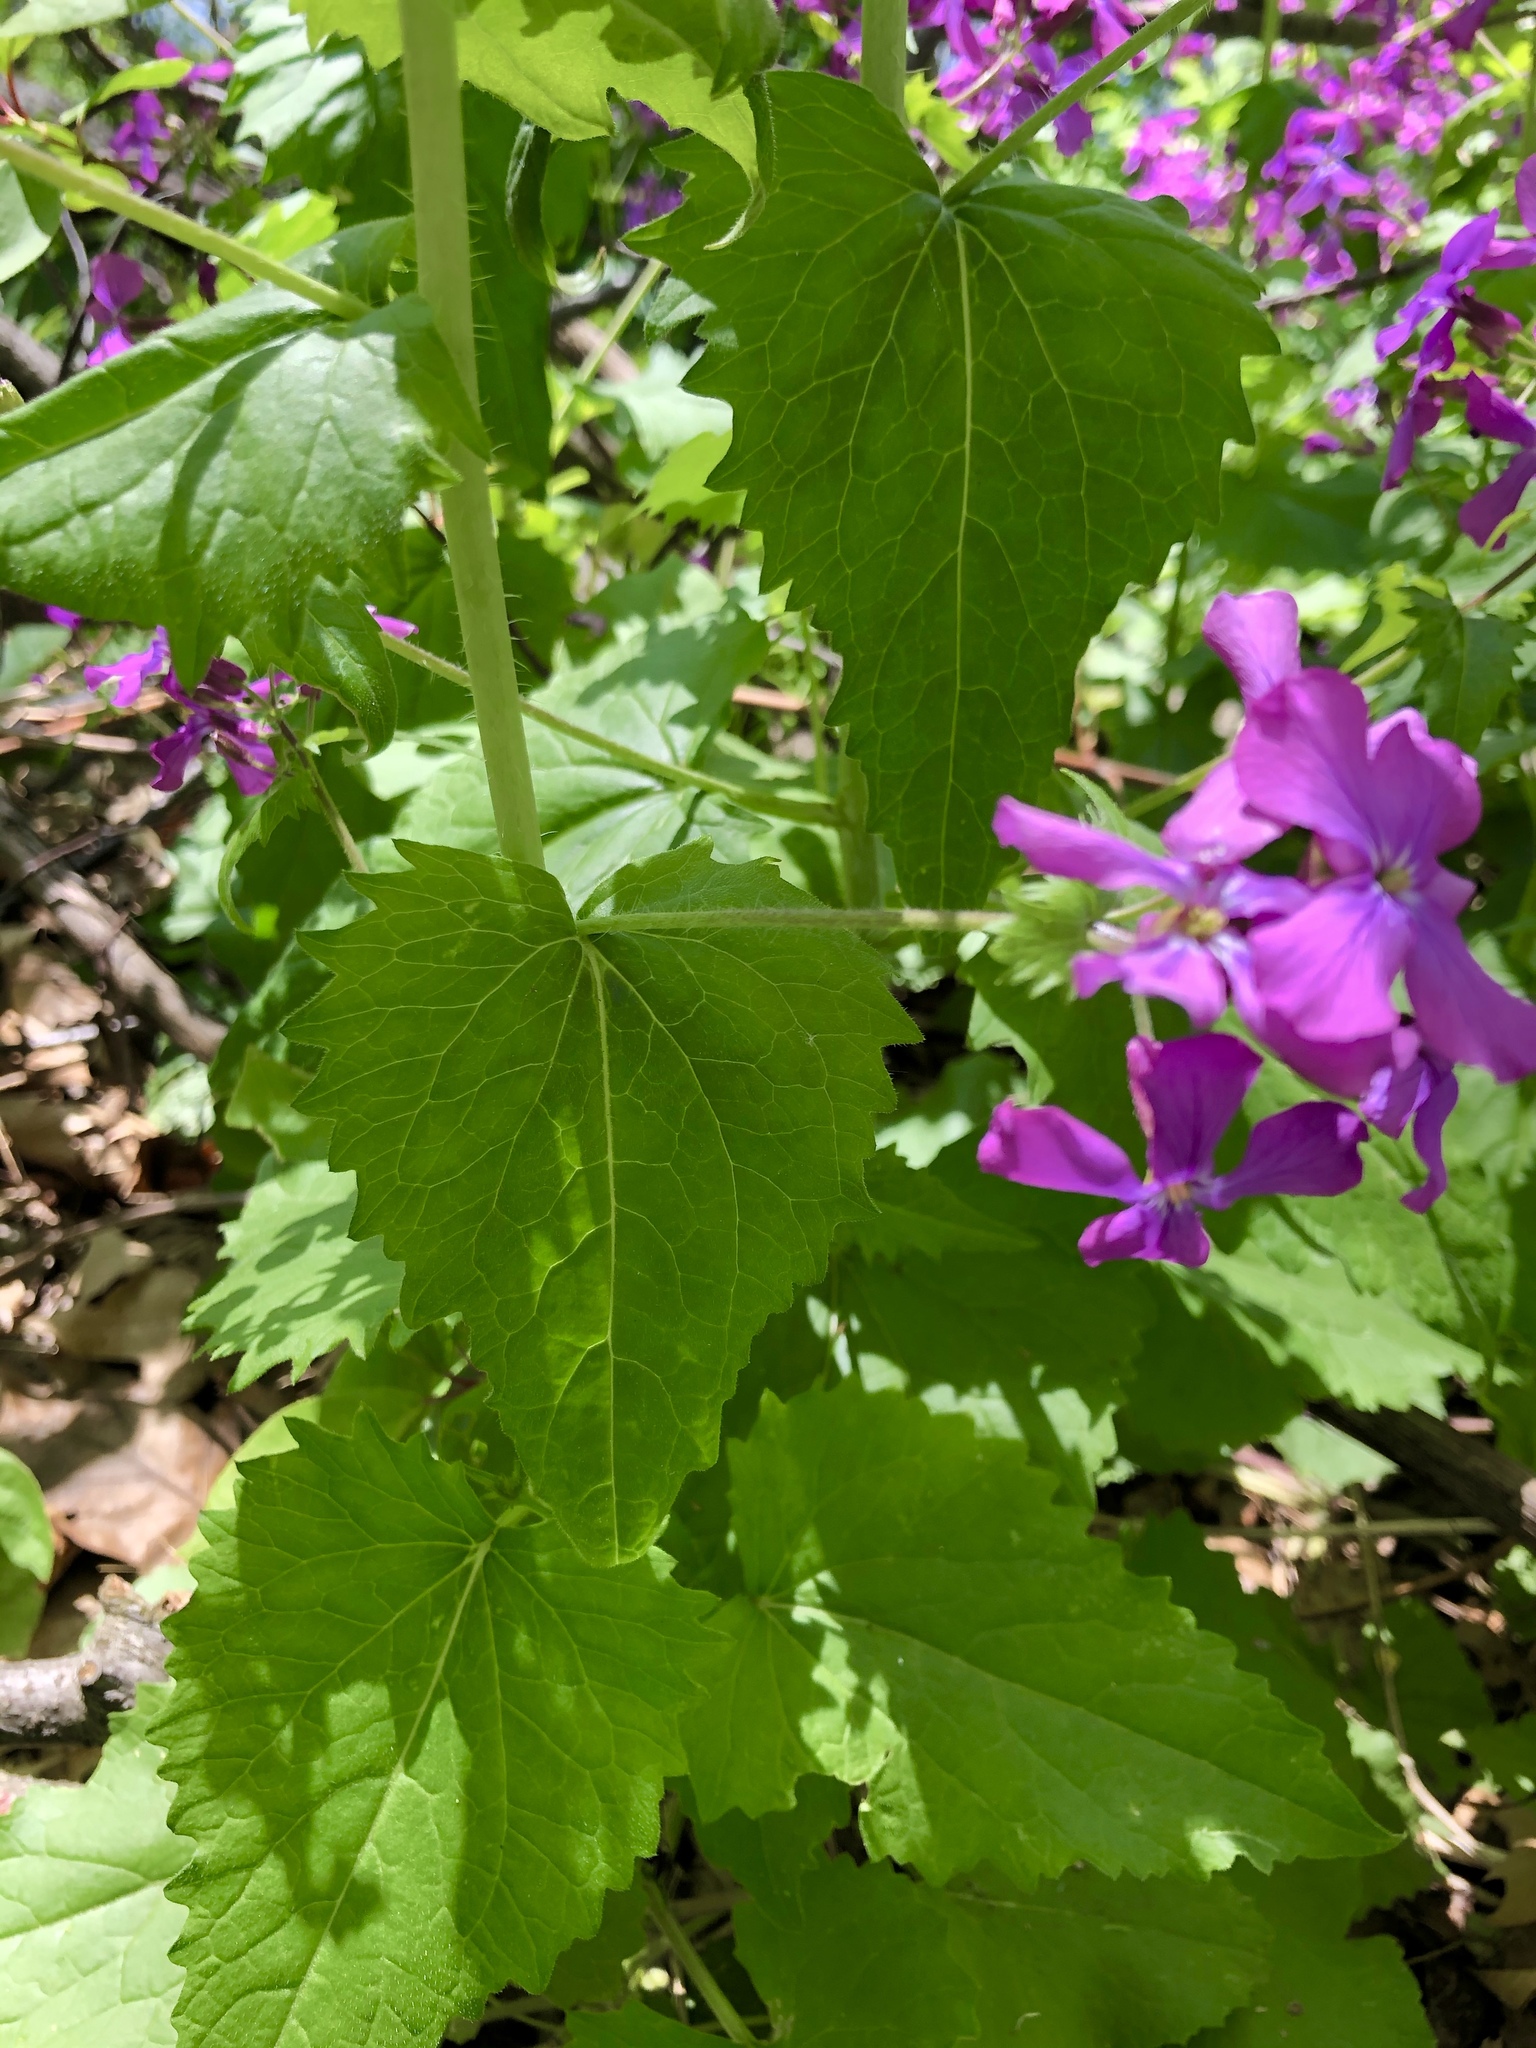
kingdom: Plantae
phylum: Tracheophyta
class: Magnoliopsida
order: Brassicales
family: Brassicaceae
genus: Lunaria
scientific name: Lunaria annua
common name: Honesty
